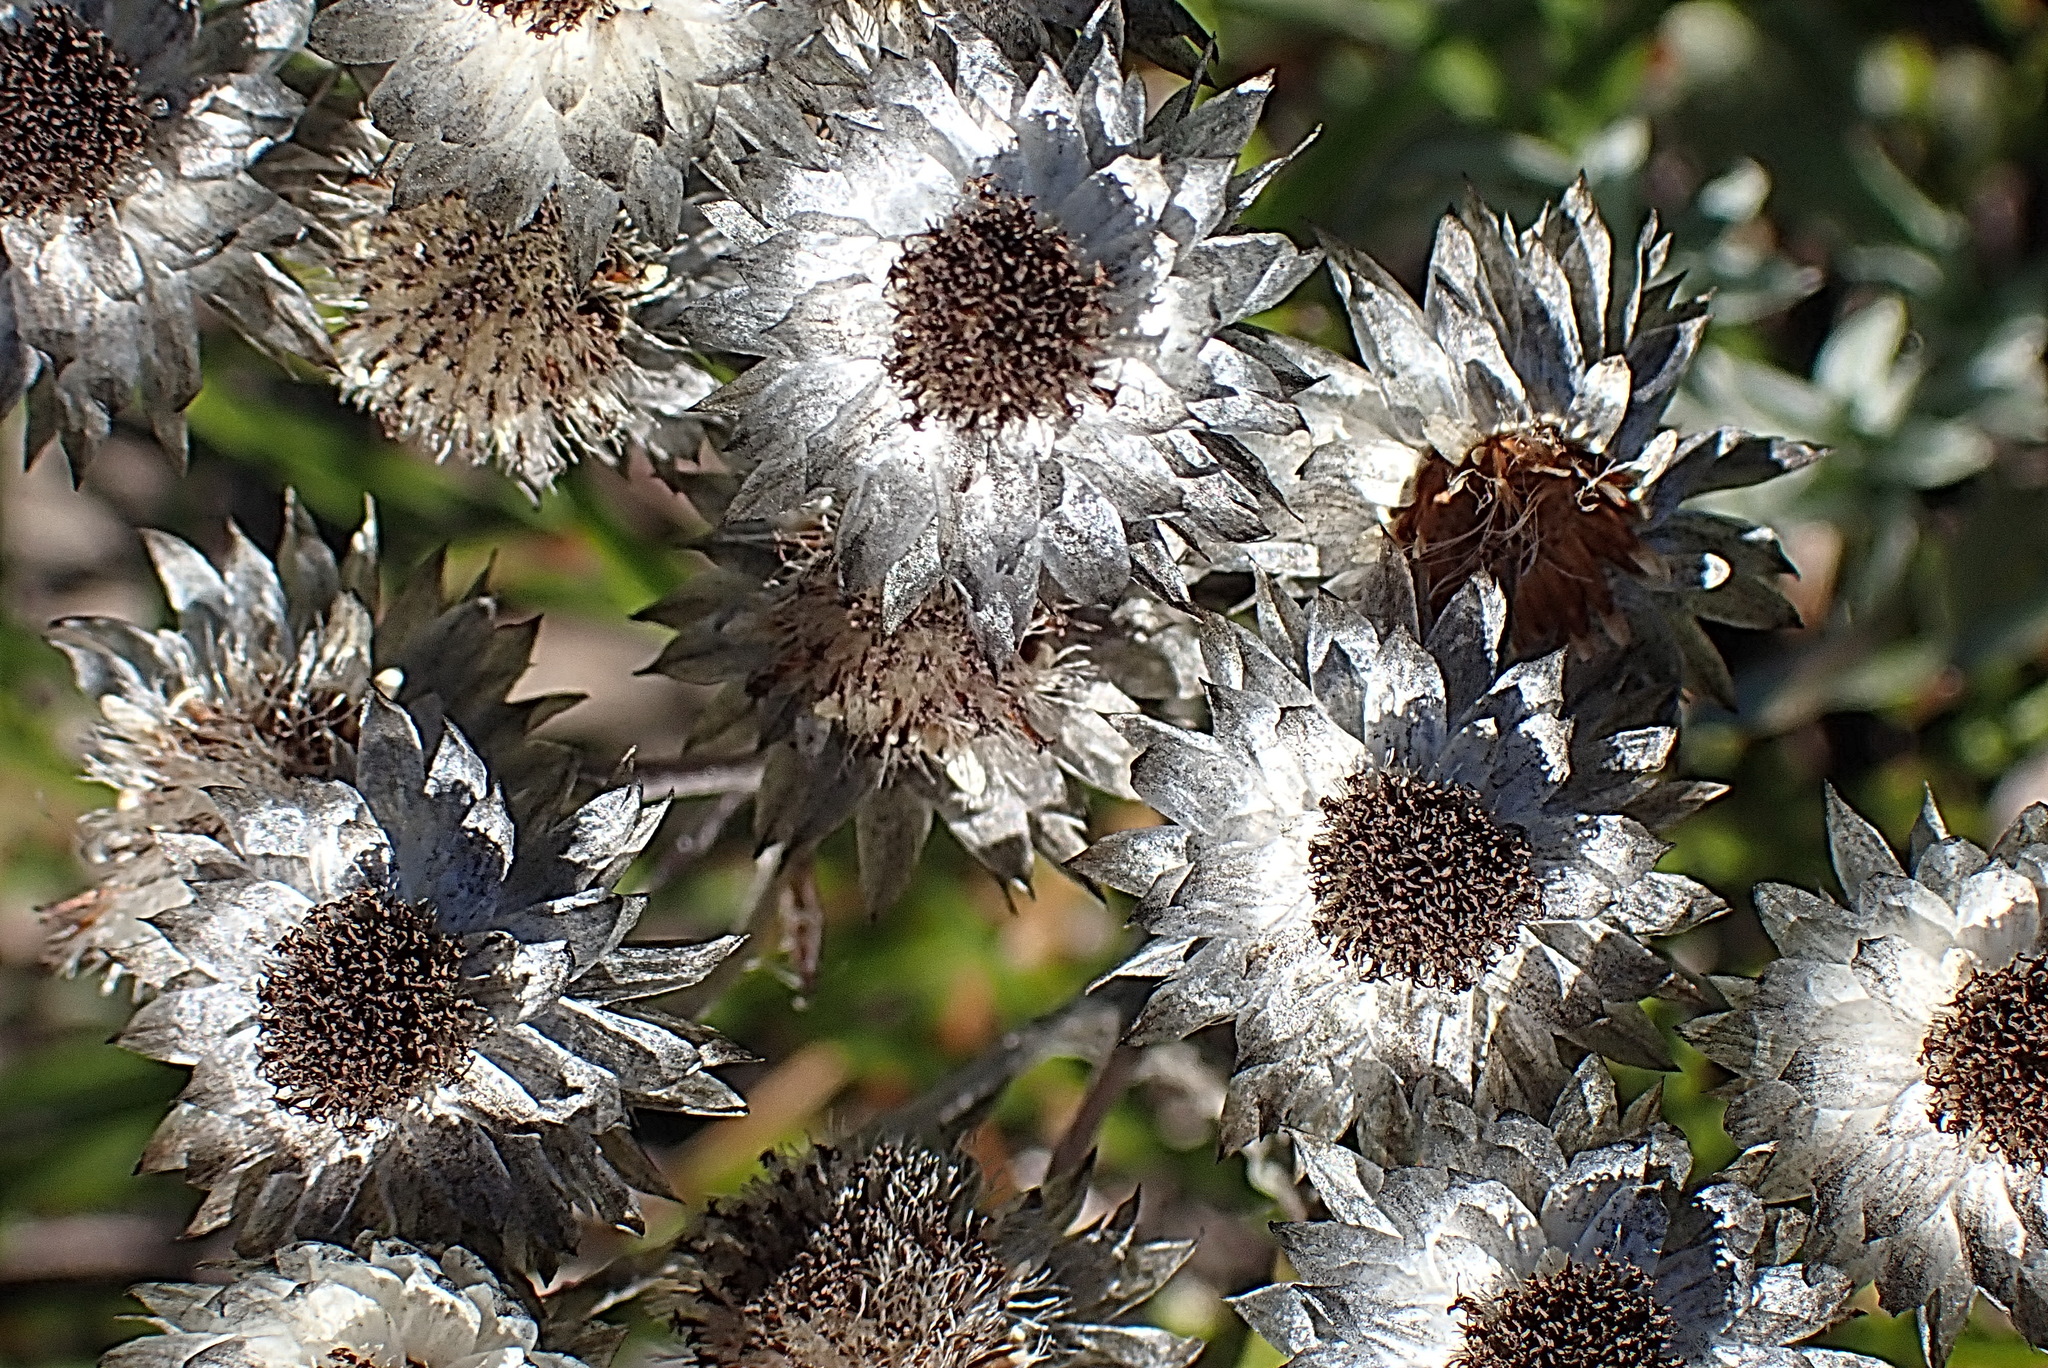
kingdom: Plantae
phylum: Tracheophyta
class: Magnoliopsida
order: Asterales
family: Asteraceae
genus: Achyranthemum
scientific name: Achyranthemum paniculatum
